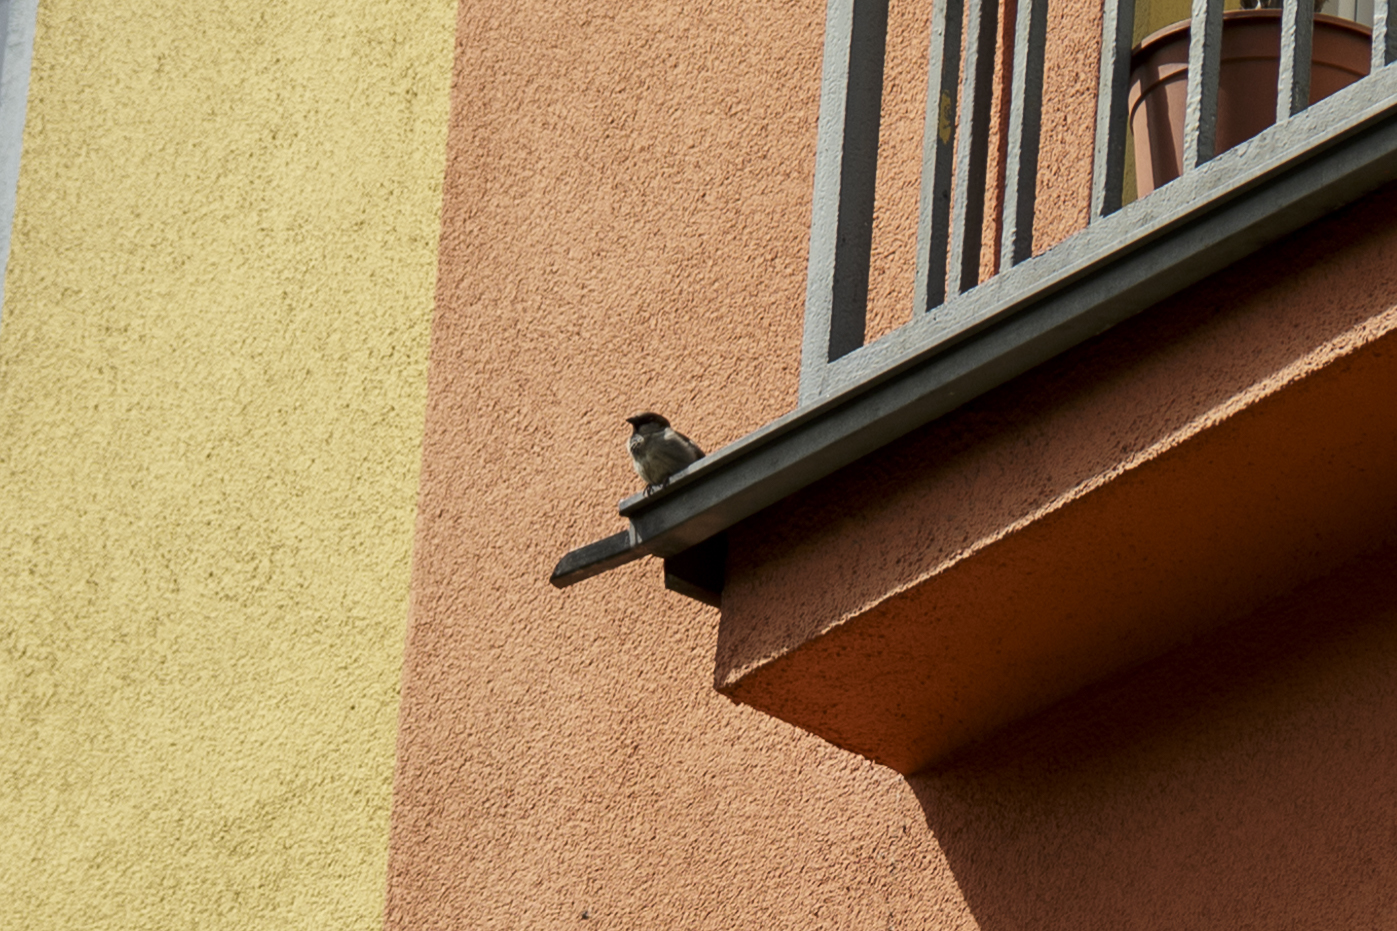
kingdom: Animalia
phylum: Chordata
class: Aves
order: Passeriformes
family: Passeridae
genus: Passer
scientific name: Passer domesticus
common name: House sparrow
